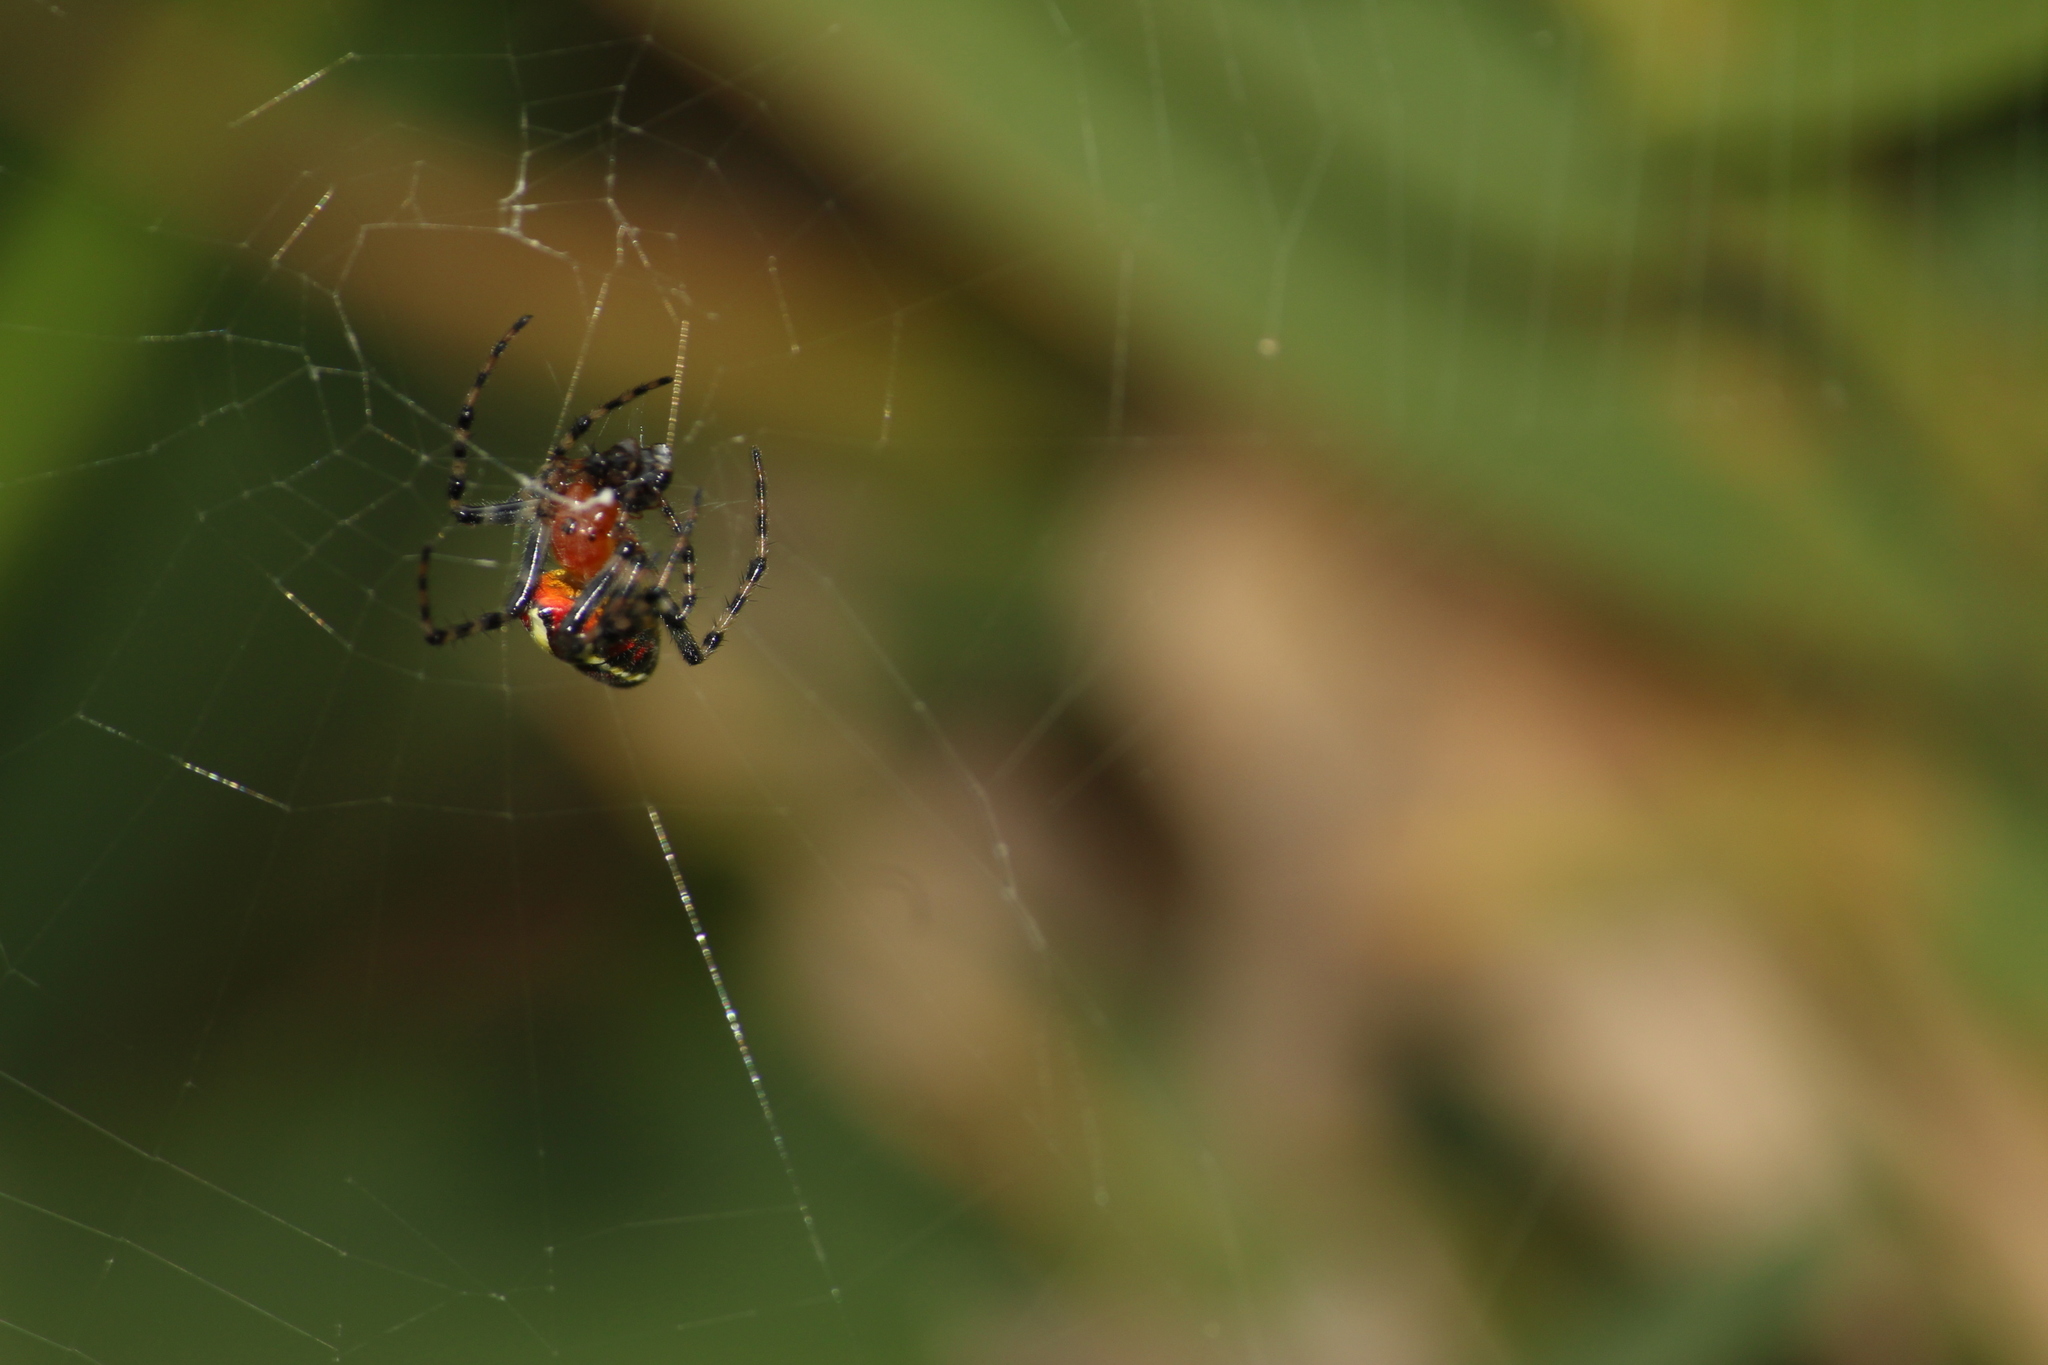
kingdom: Animalia
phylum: Arthropoda
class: Arachnida
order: Araneae
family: Araneidae
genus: Alpaida
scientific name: Alpaida grayi
